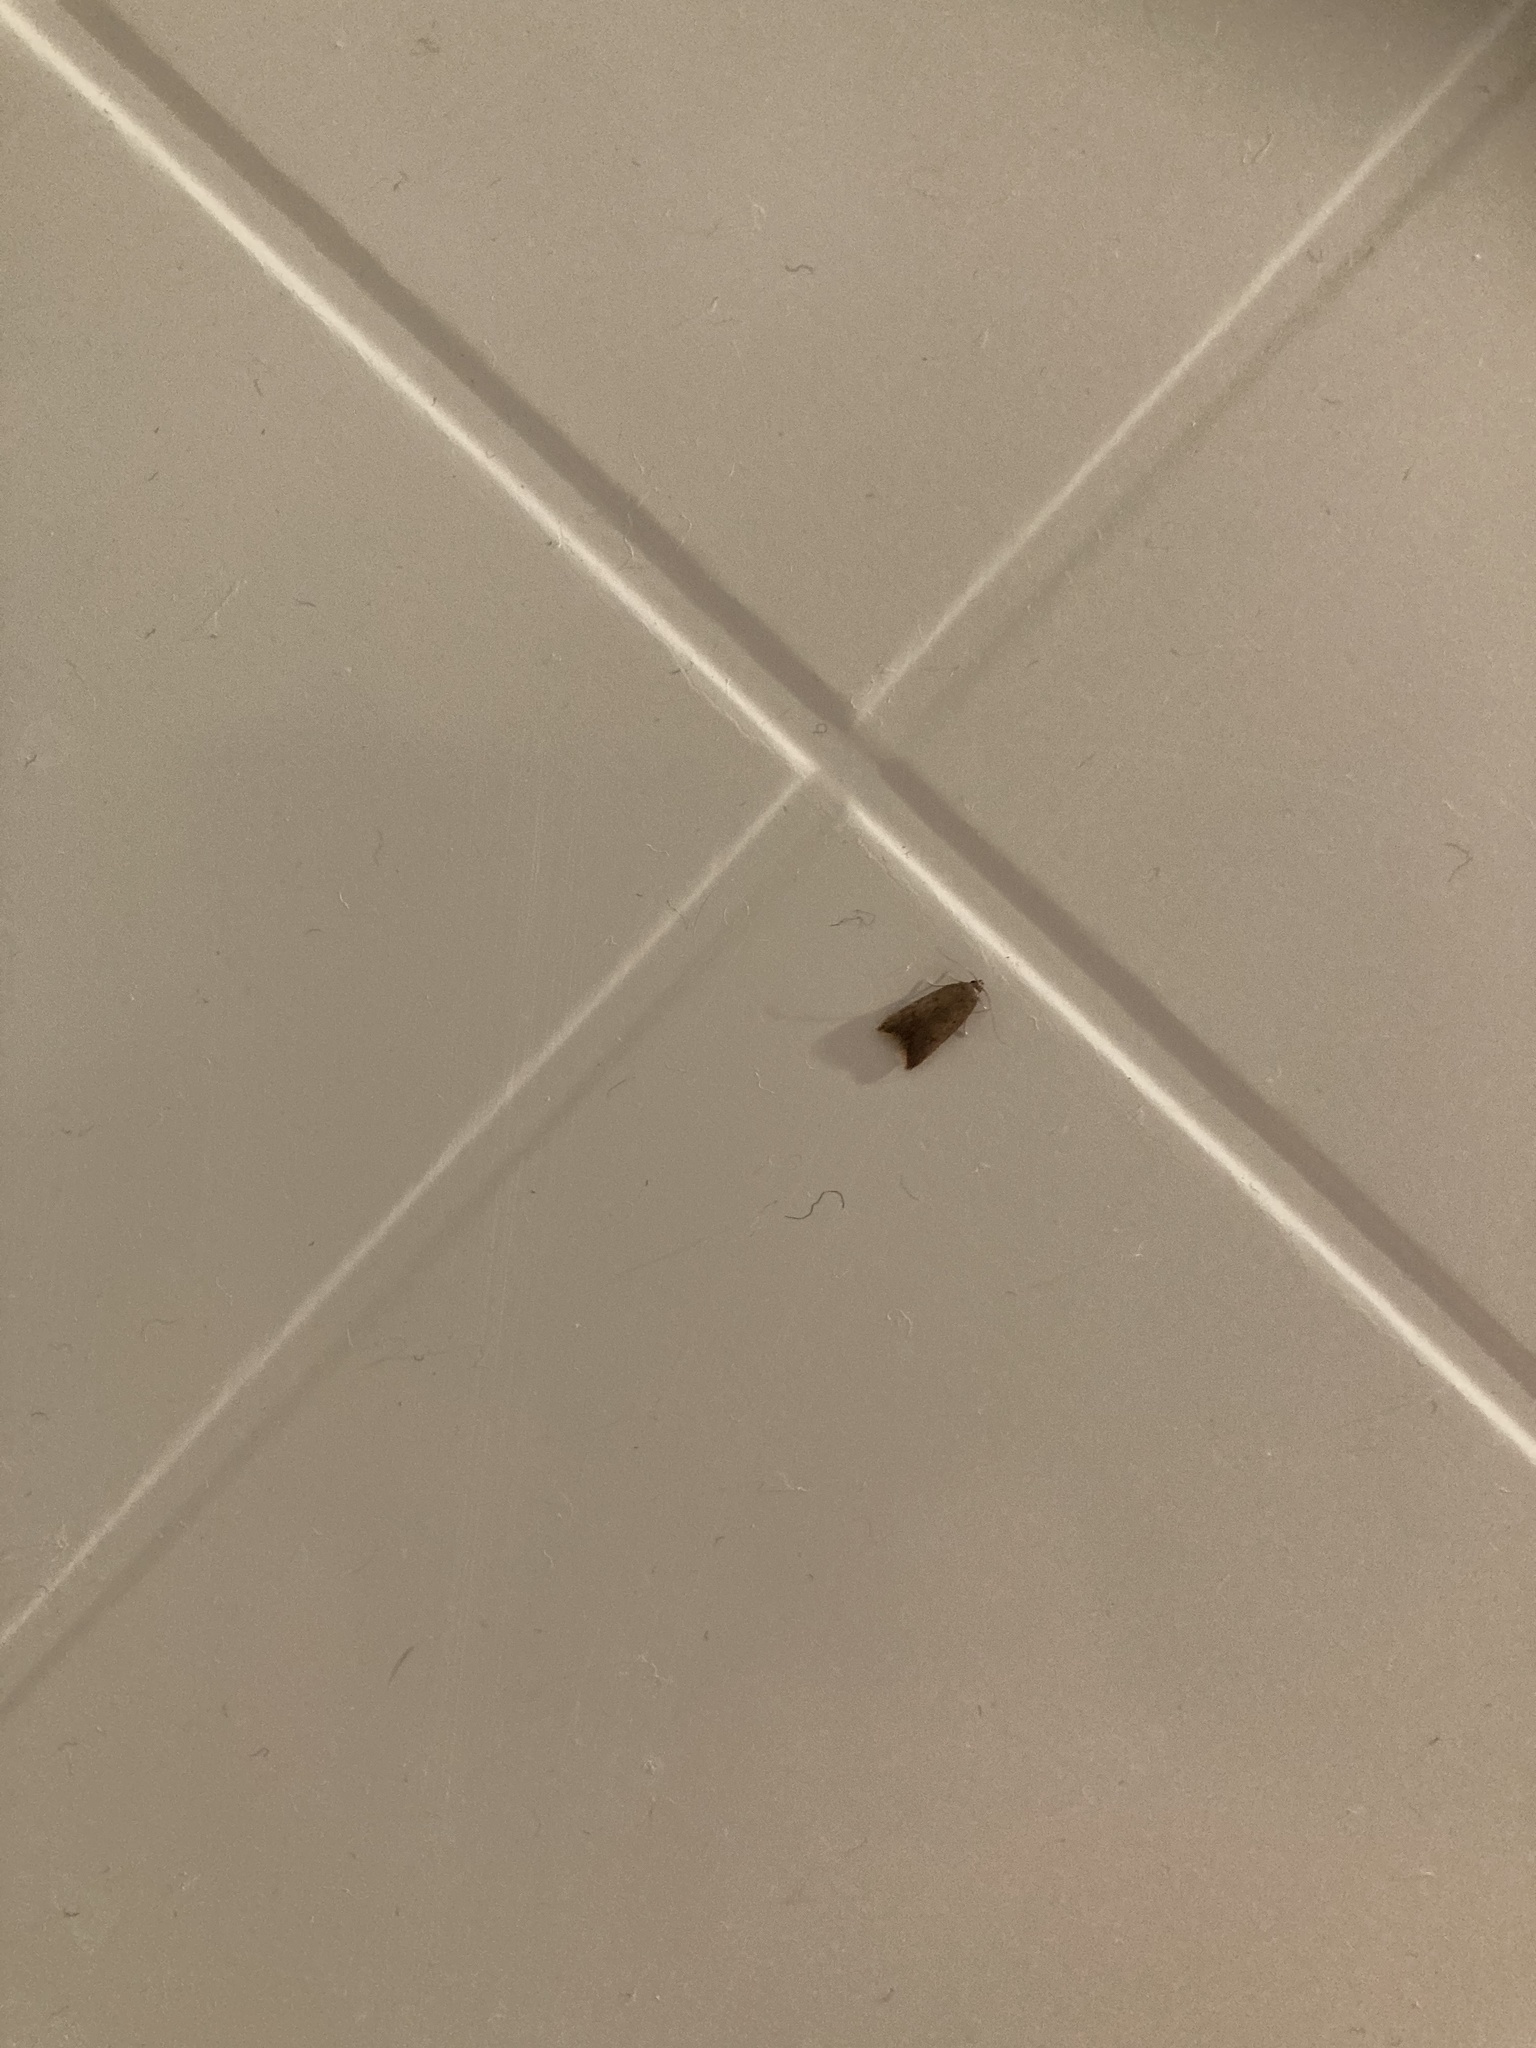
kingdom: Animalia
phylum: Arthropoda
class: Insecta
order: Lepidoptera
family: Oecophoridae
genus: Tachystola
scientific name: Tachystola acroxantha
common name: Ruddy streak
